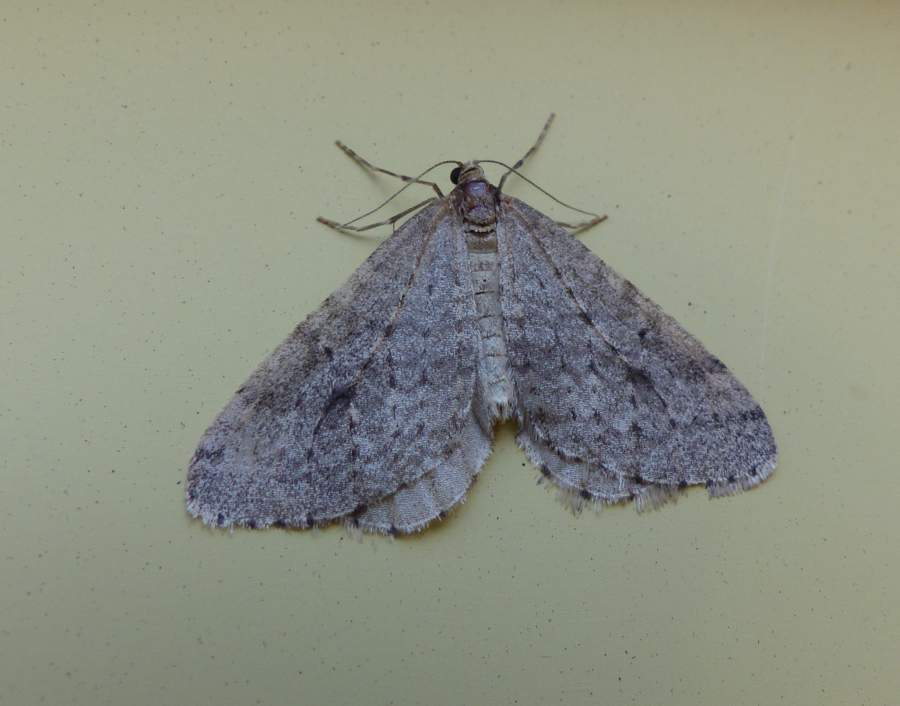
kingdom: Animalia
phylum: Arthropoda
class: Insecta
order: Lepidoptera
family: Geometridae
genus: Operophtera
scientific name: Operophtera bruceata
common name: Bruce spanworm
